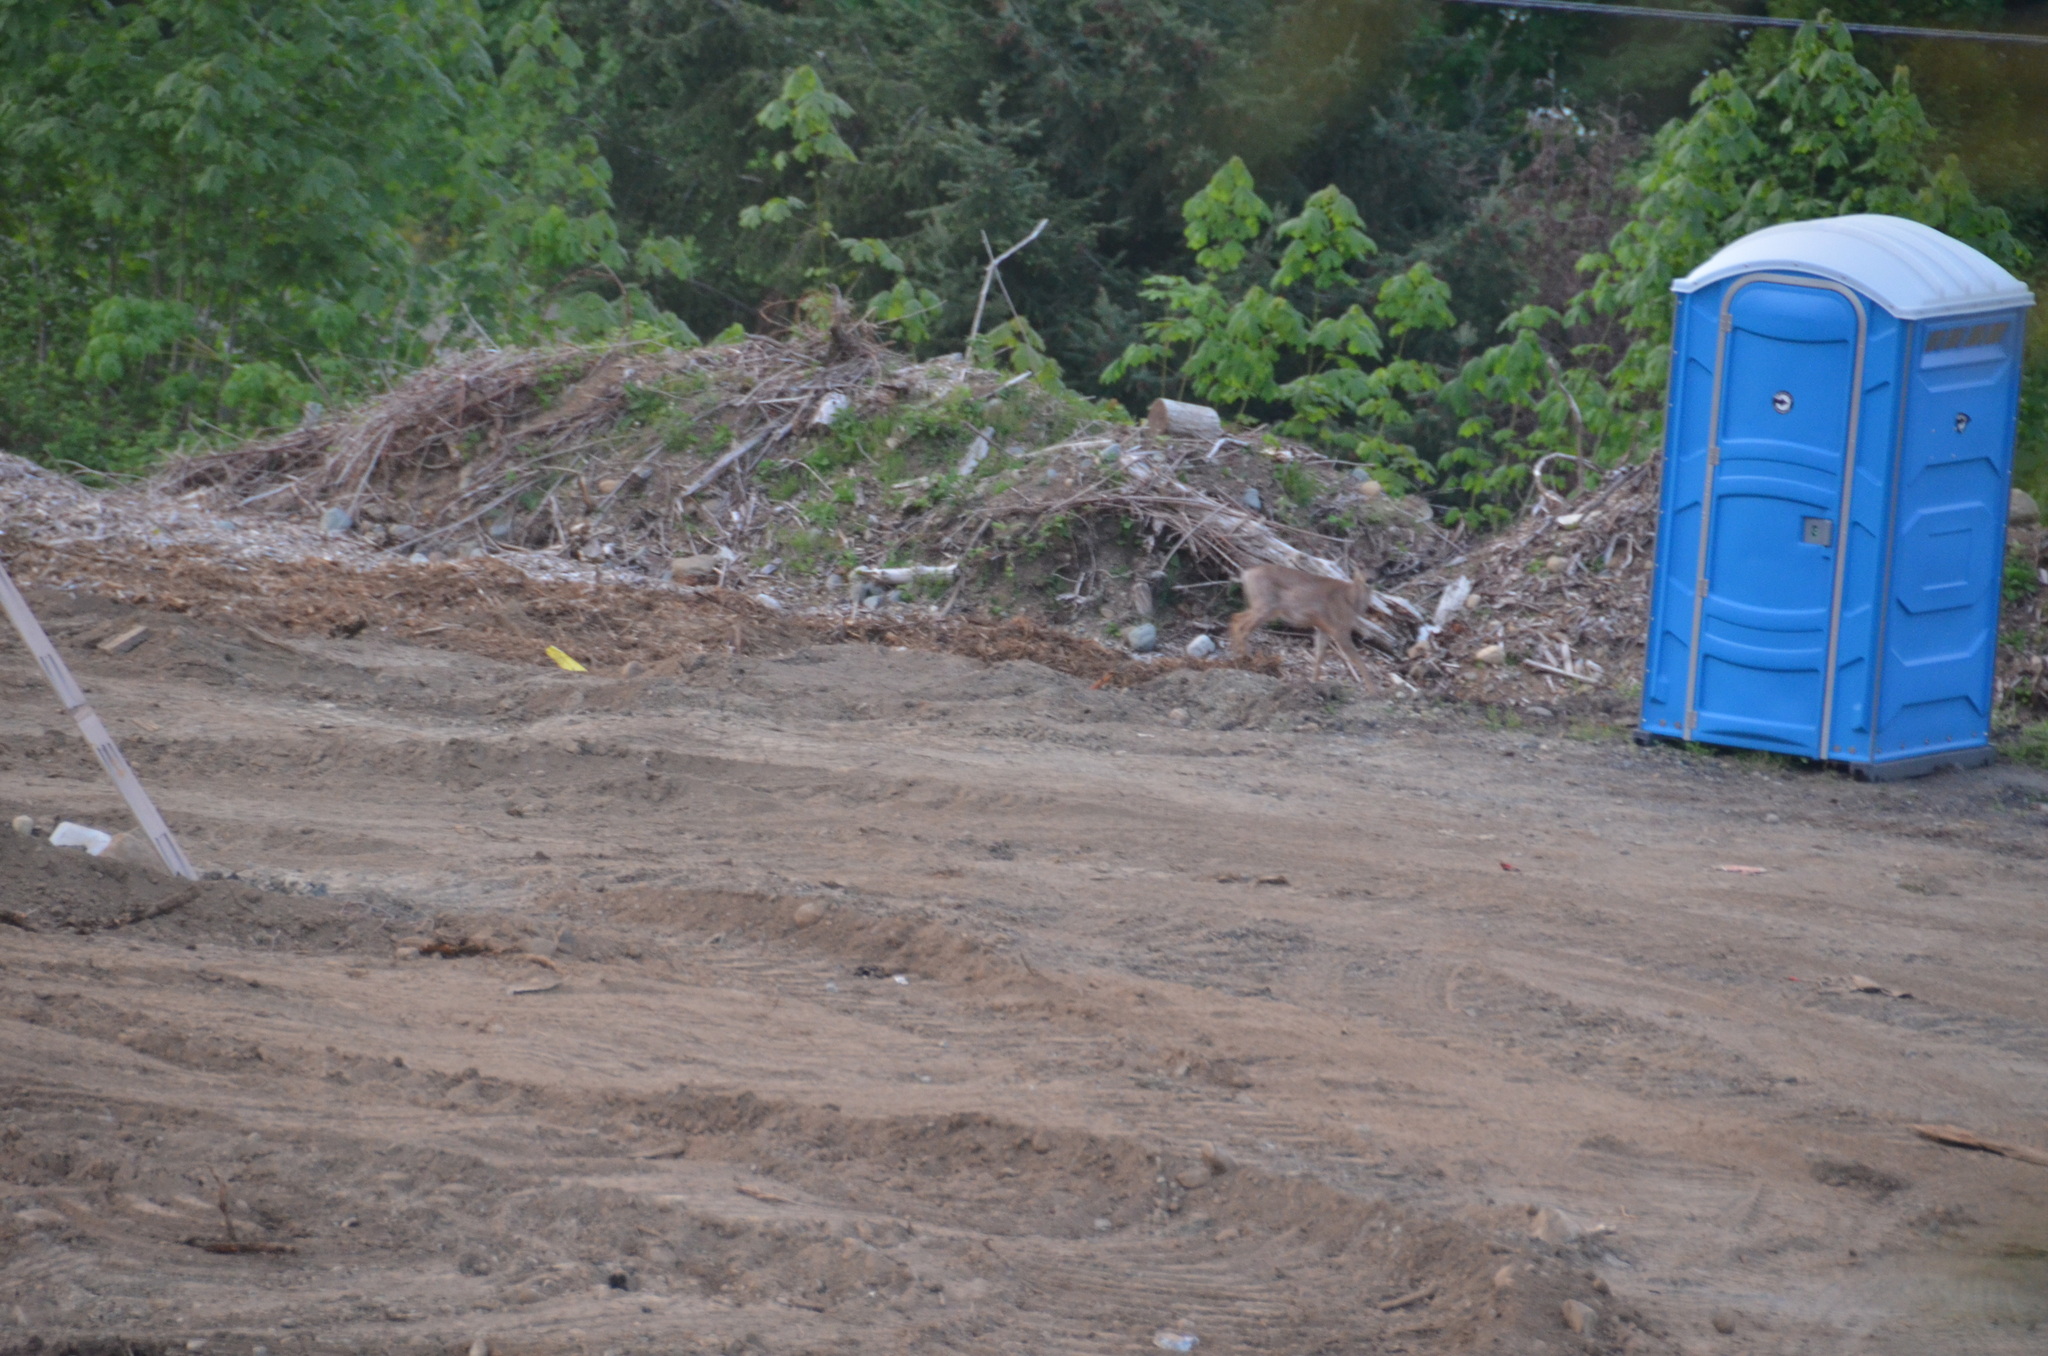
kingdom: Animalia
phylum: Chordata
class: Mammalia
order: Artiodactyla
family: Cervidae
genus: Odocoileus
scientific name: Odocoileus hemionus
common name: Mule deer
